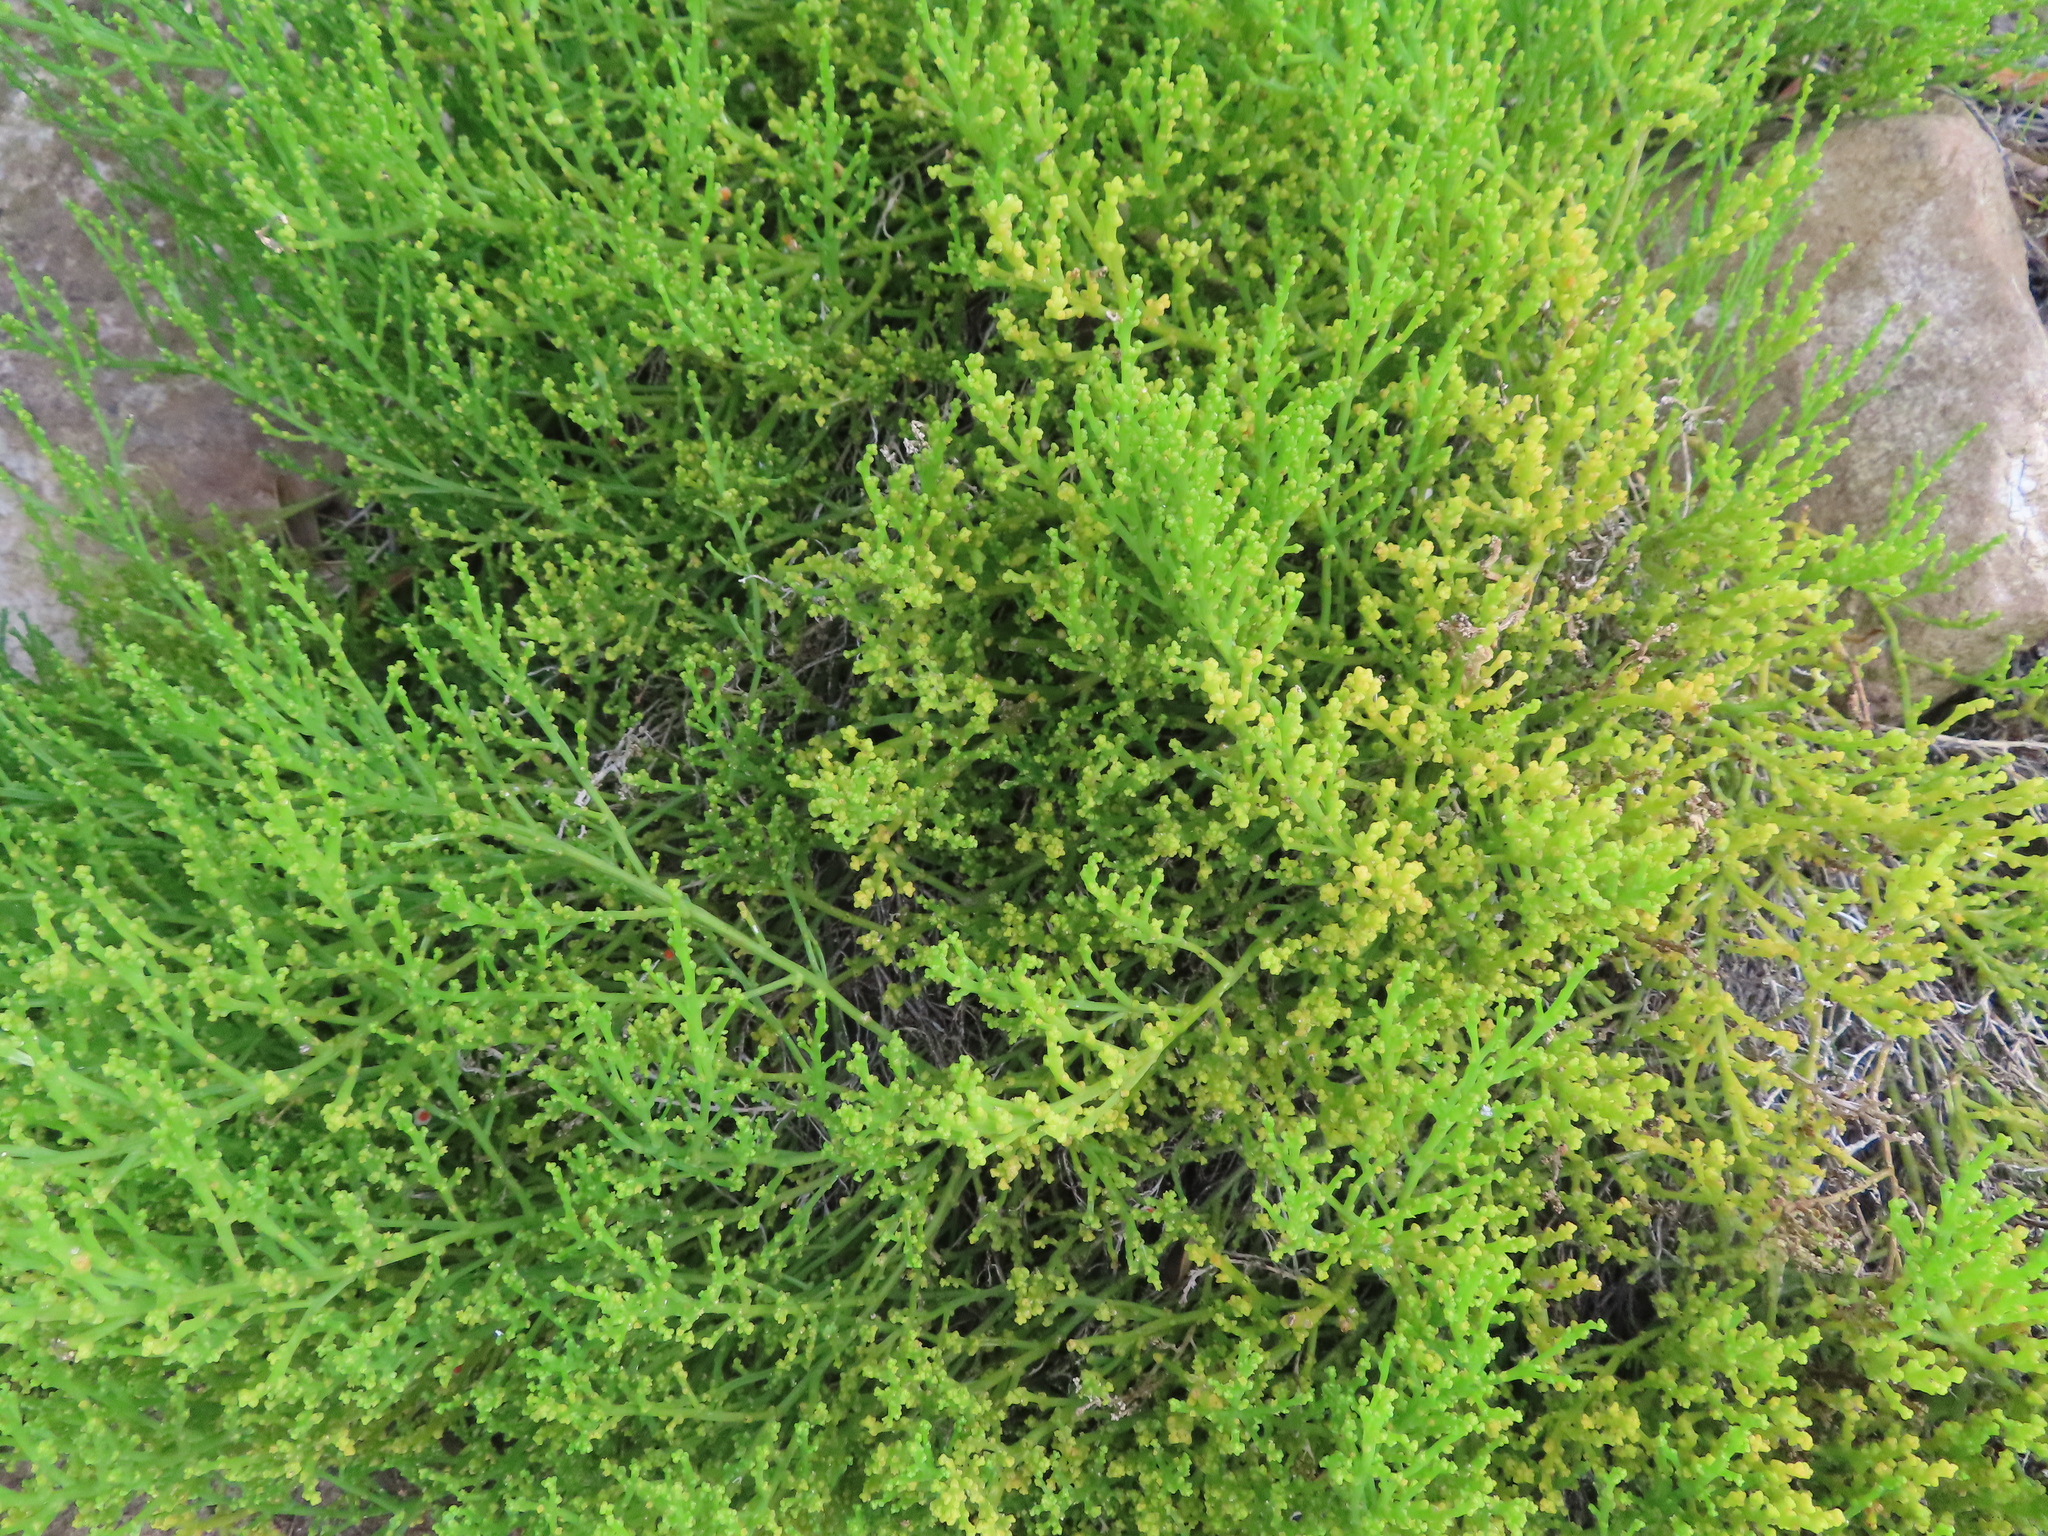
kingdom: Plantae
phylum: Tracheophyta
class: Magnoliopsida
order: Santalales
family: Thesiaceae
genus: Thesium
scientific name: Thesium fragile
